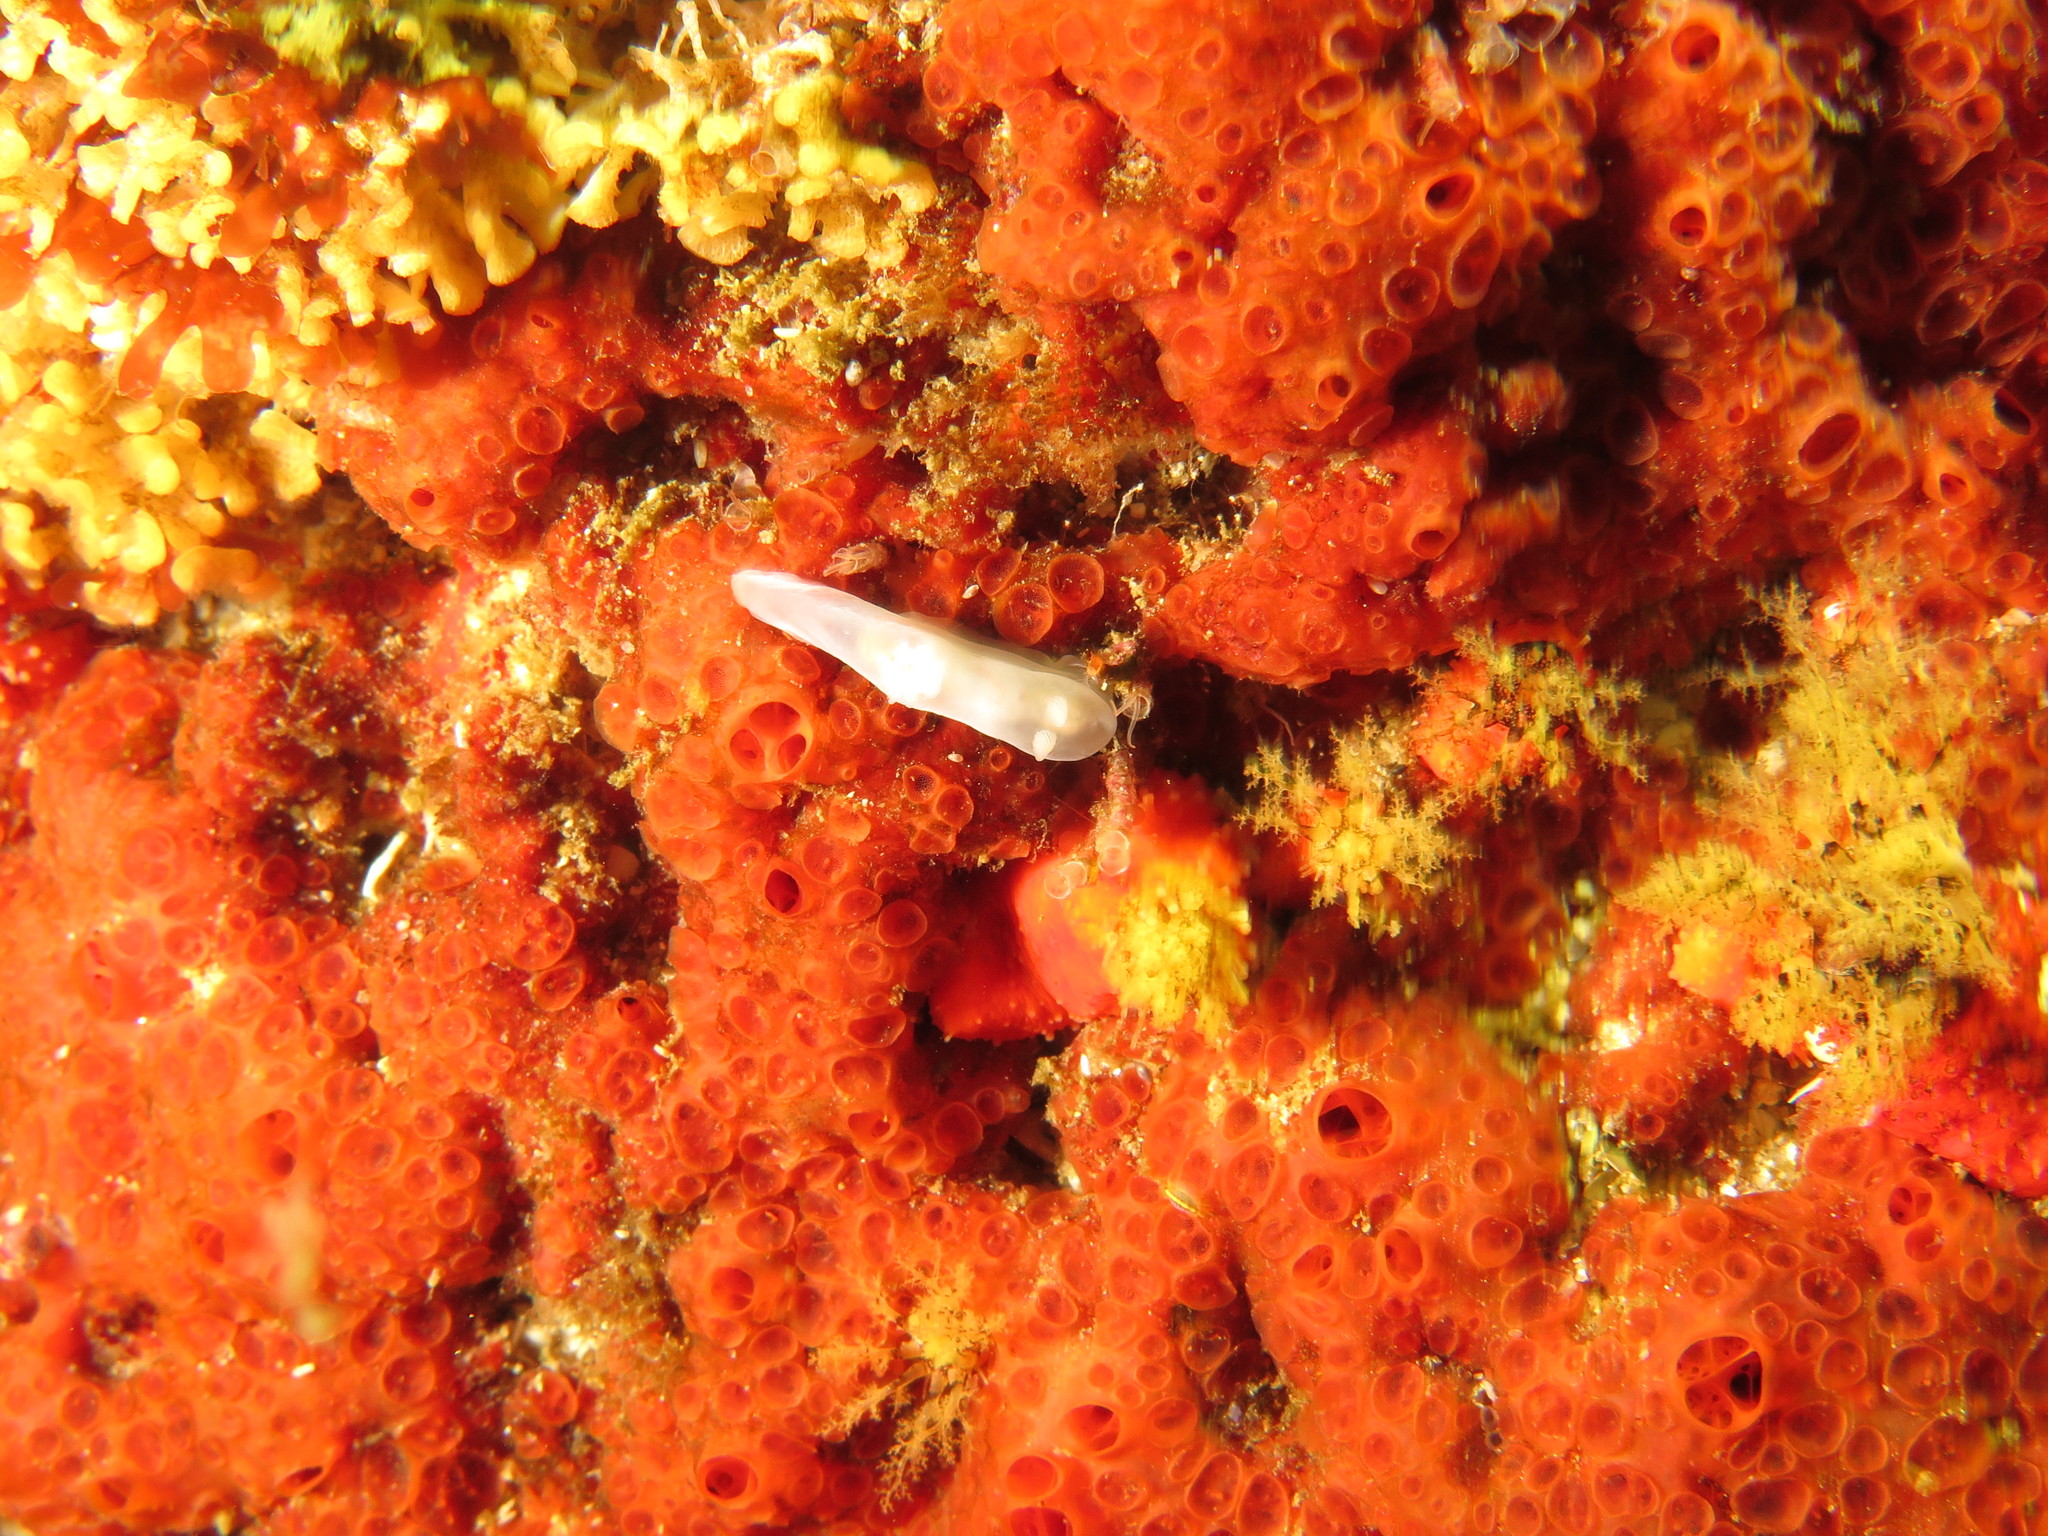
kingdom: Animalia
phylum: Mollusca
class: Gastropoda
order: Nudibranchia
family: Polyceridae
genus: Lecithophorus
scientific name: Lecithophorus capensis
